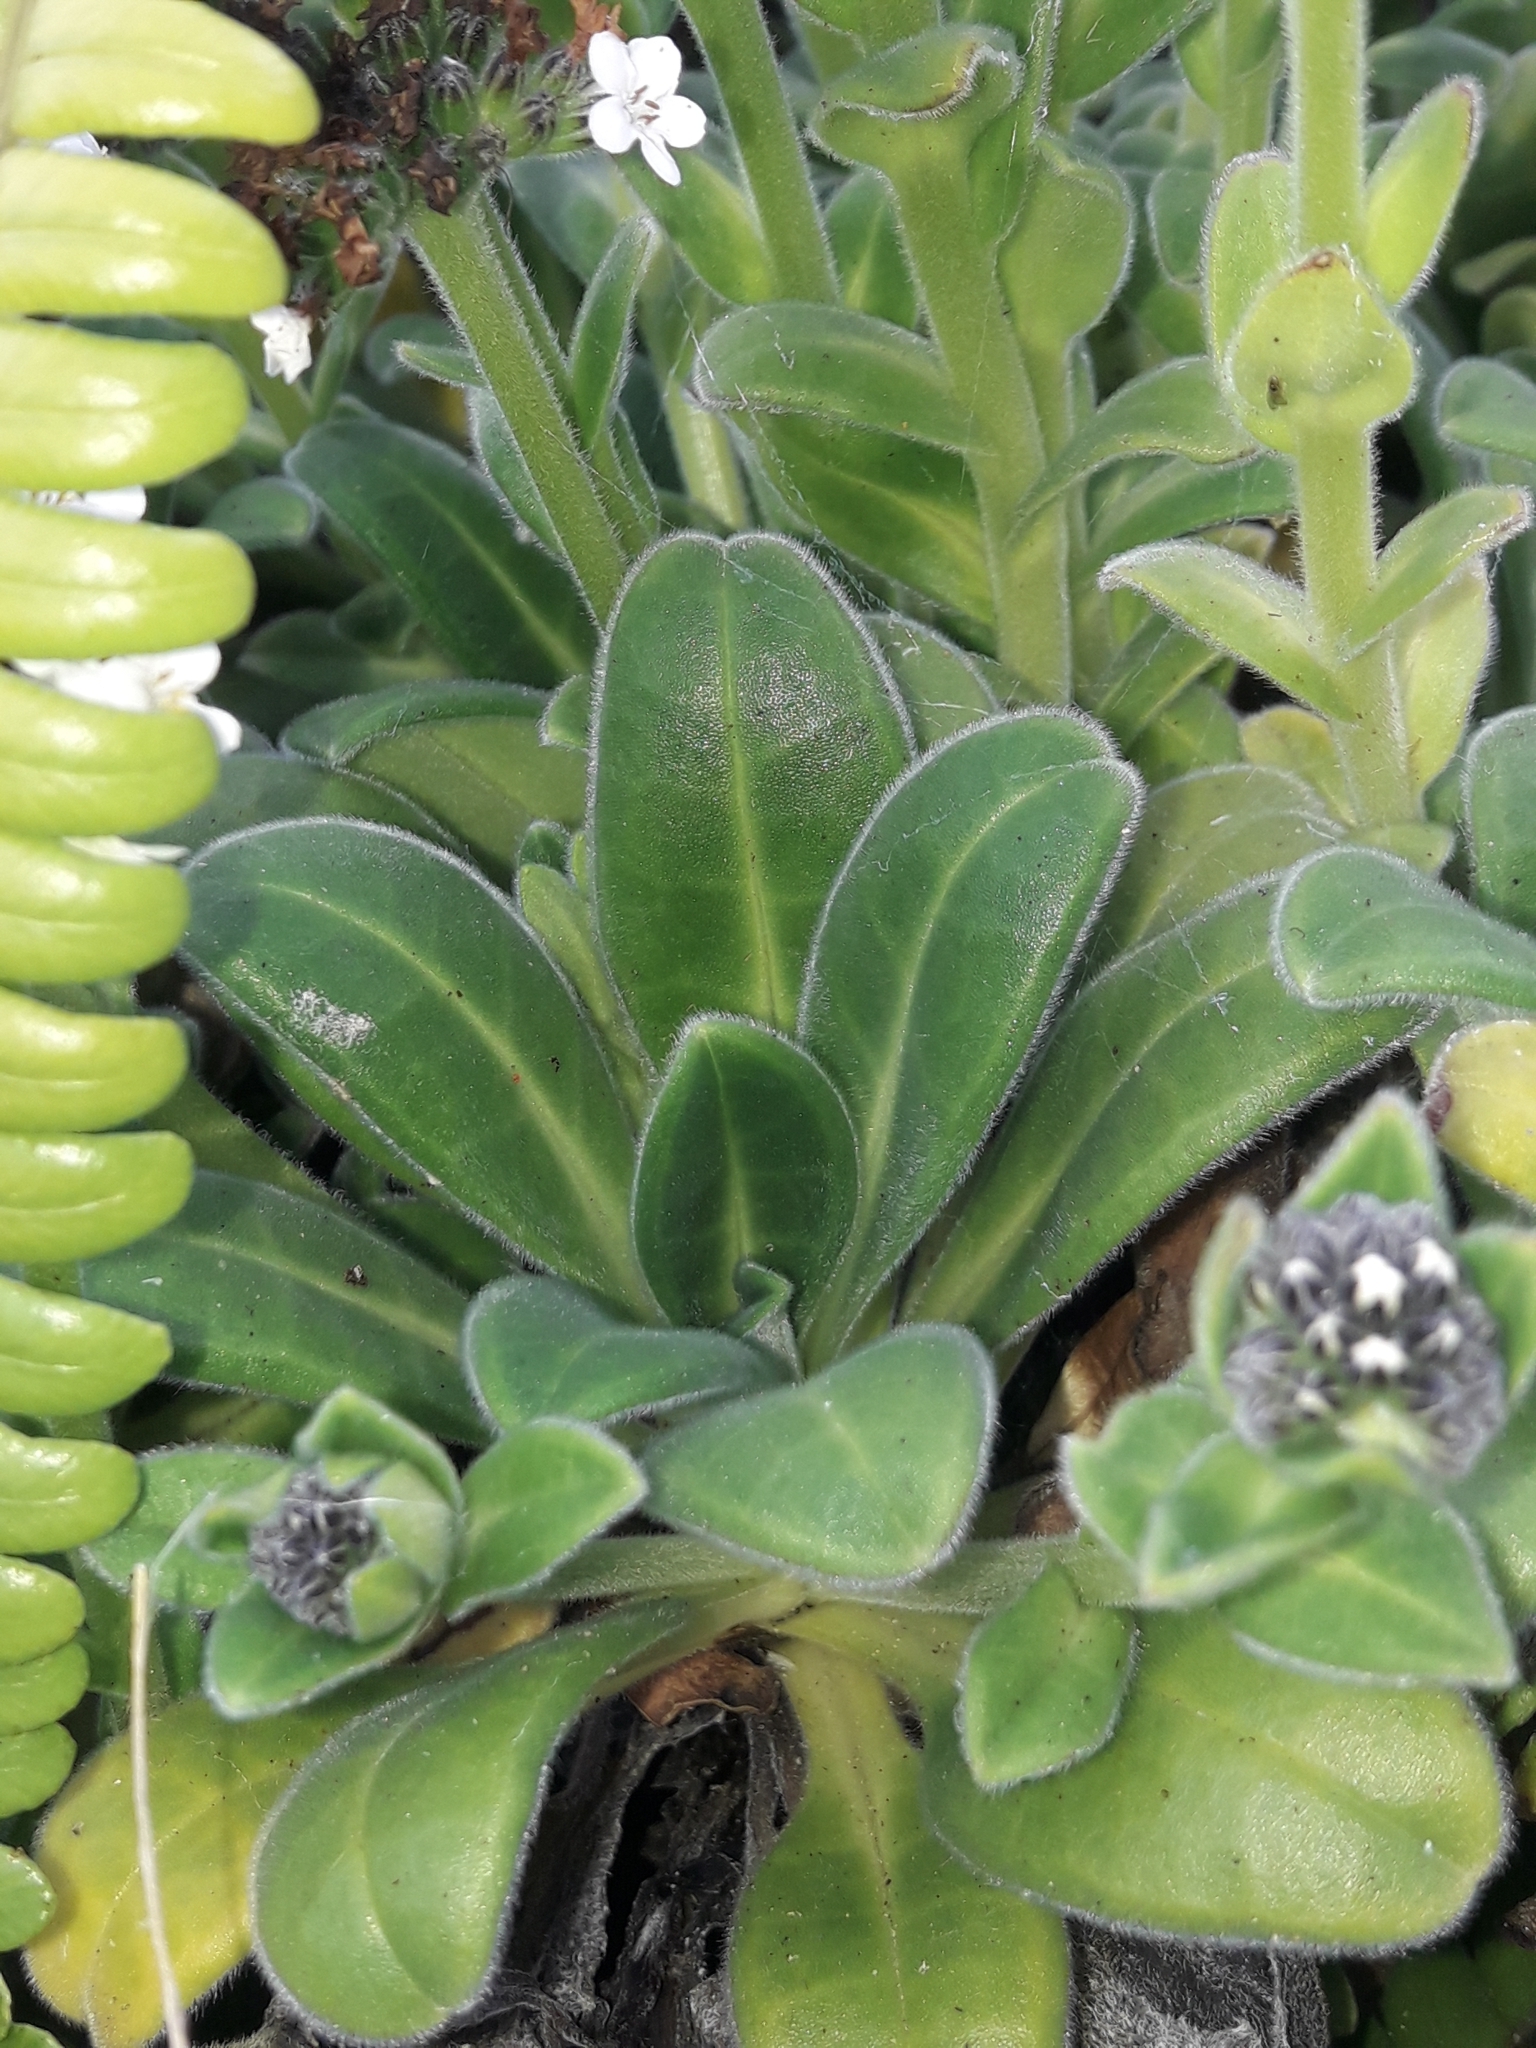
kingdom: Plantae
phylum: Tracheophyta
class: Magnoliopsida
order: Boraginales
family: Boraginaceae
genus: Myosotis
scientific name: Myosotis rakiura
